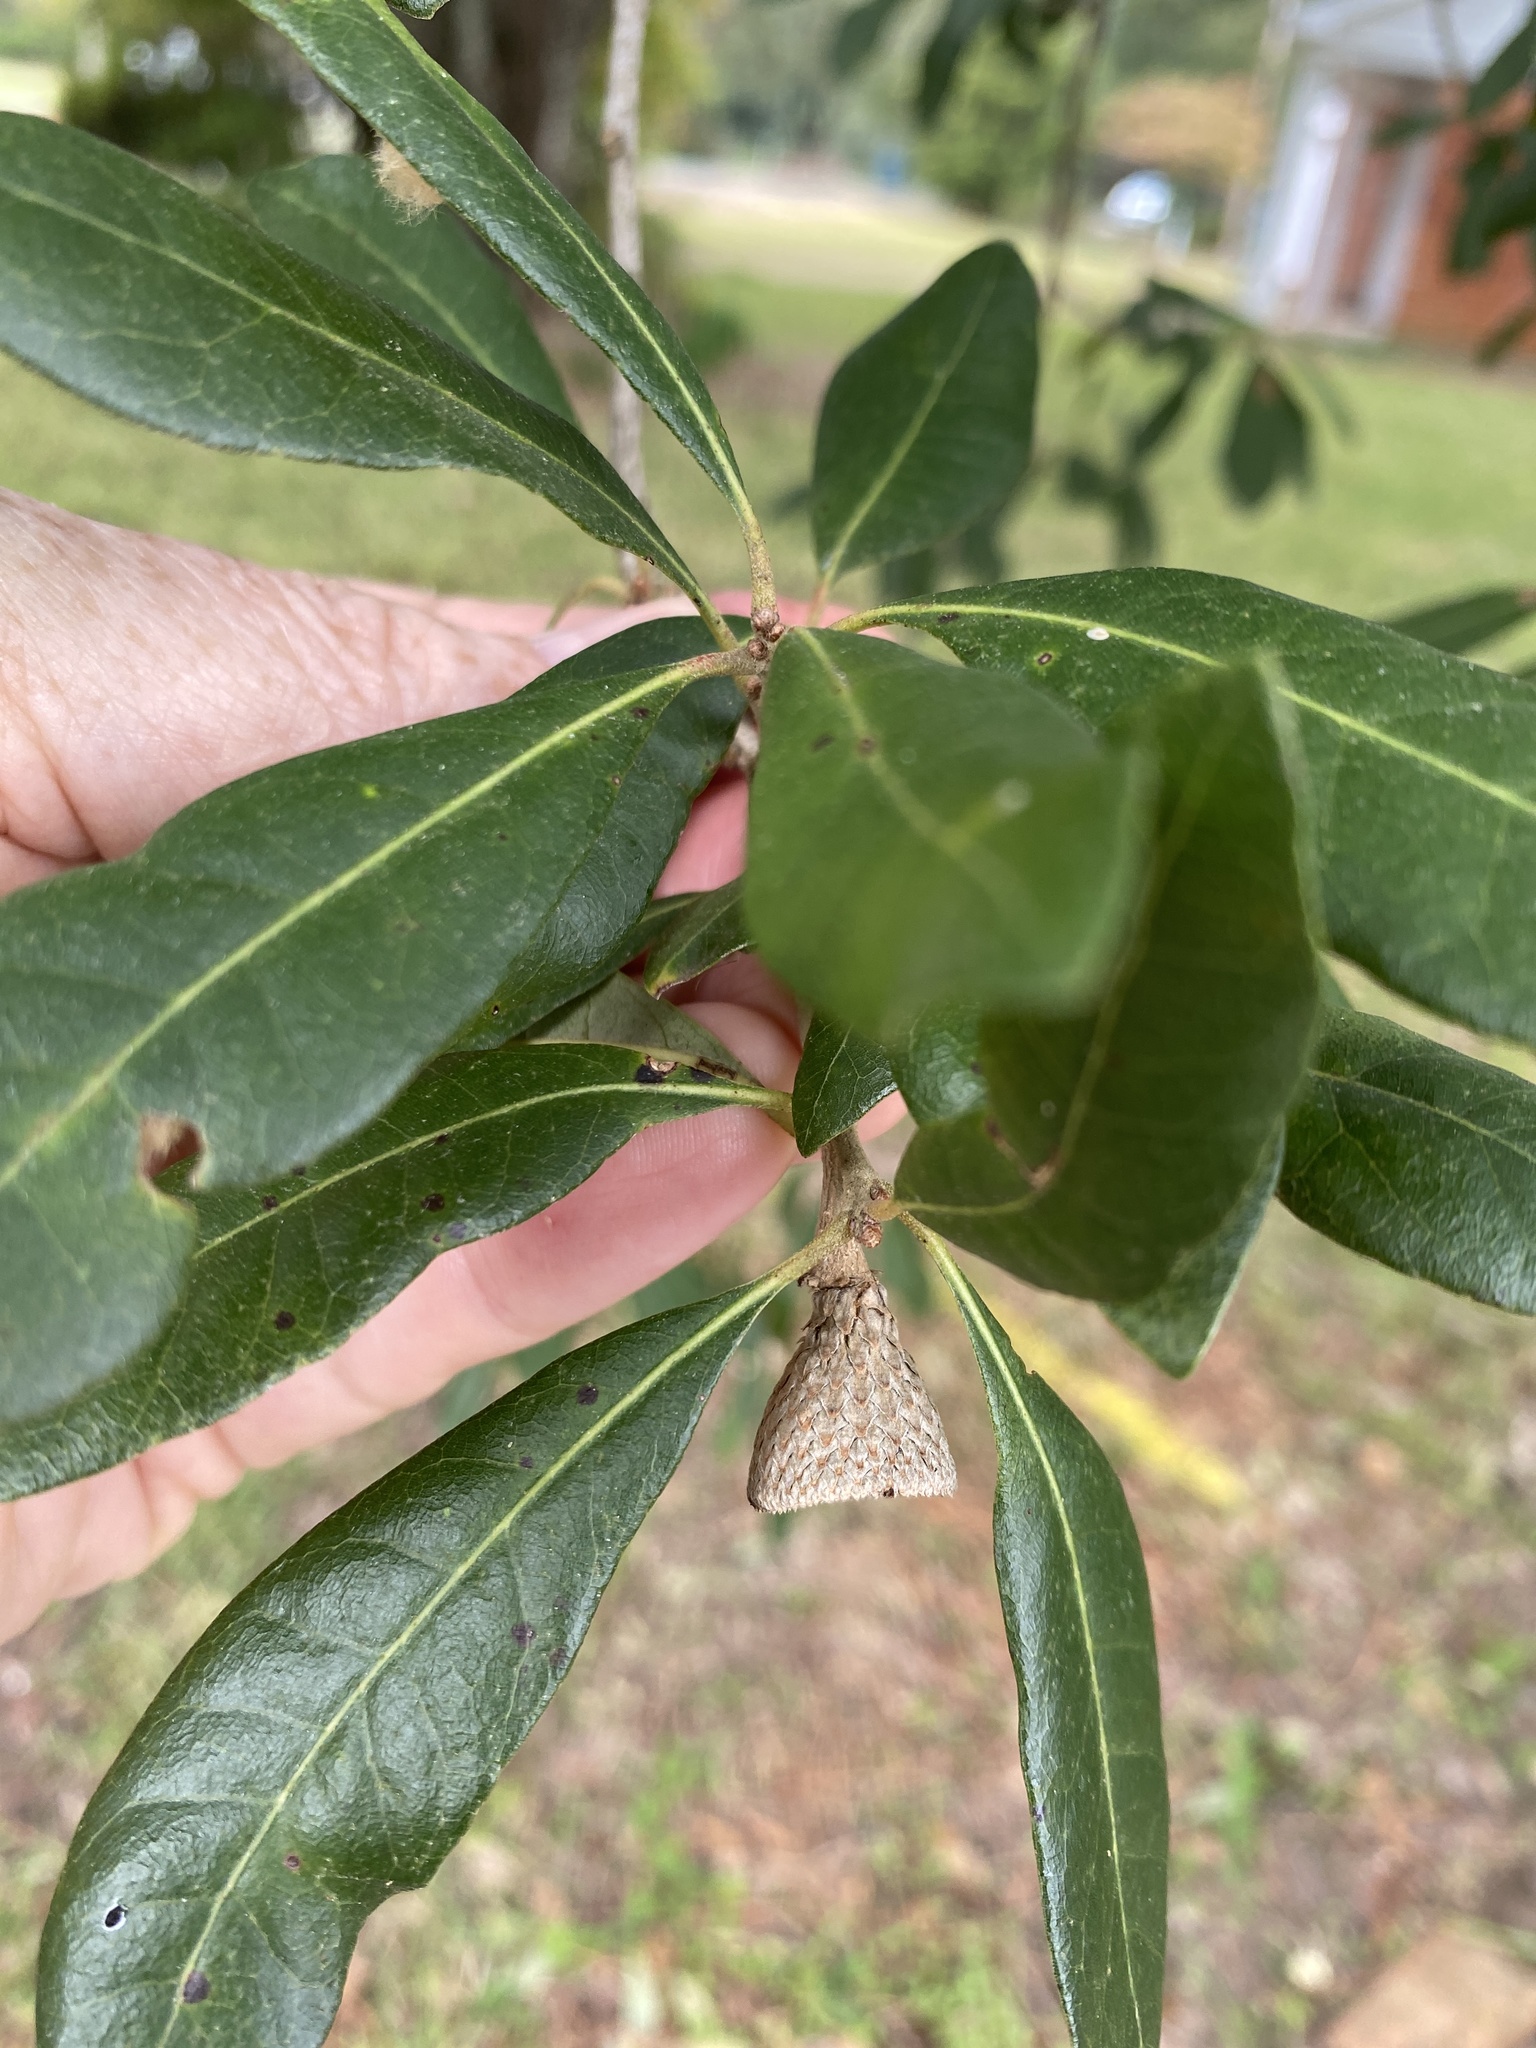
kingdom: Plantae
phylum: Tracheophyta
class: Magnoliopsida
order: Fagales
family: Fagaceae
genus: Quercus
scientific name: Quercus virginiana
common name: Southern live oak
